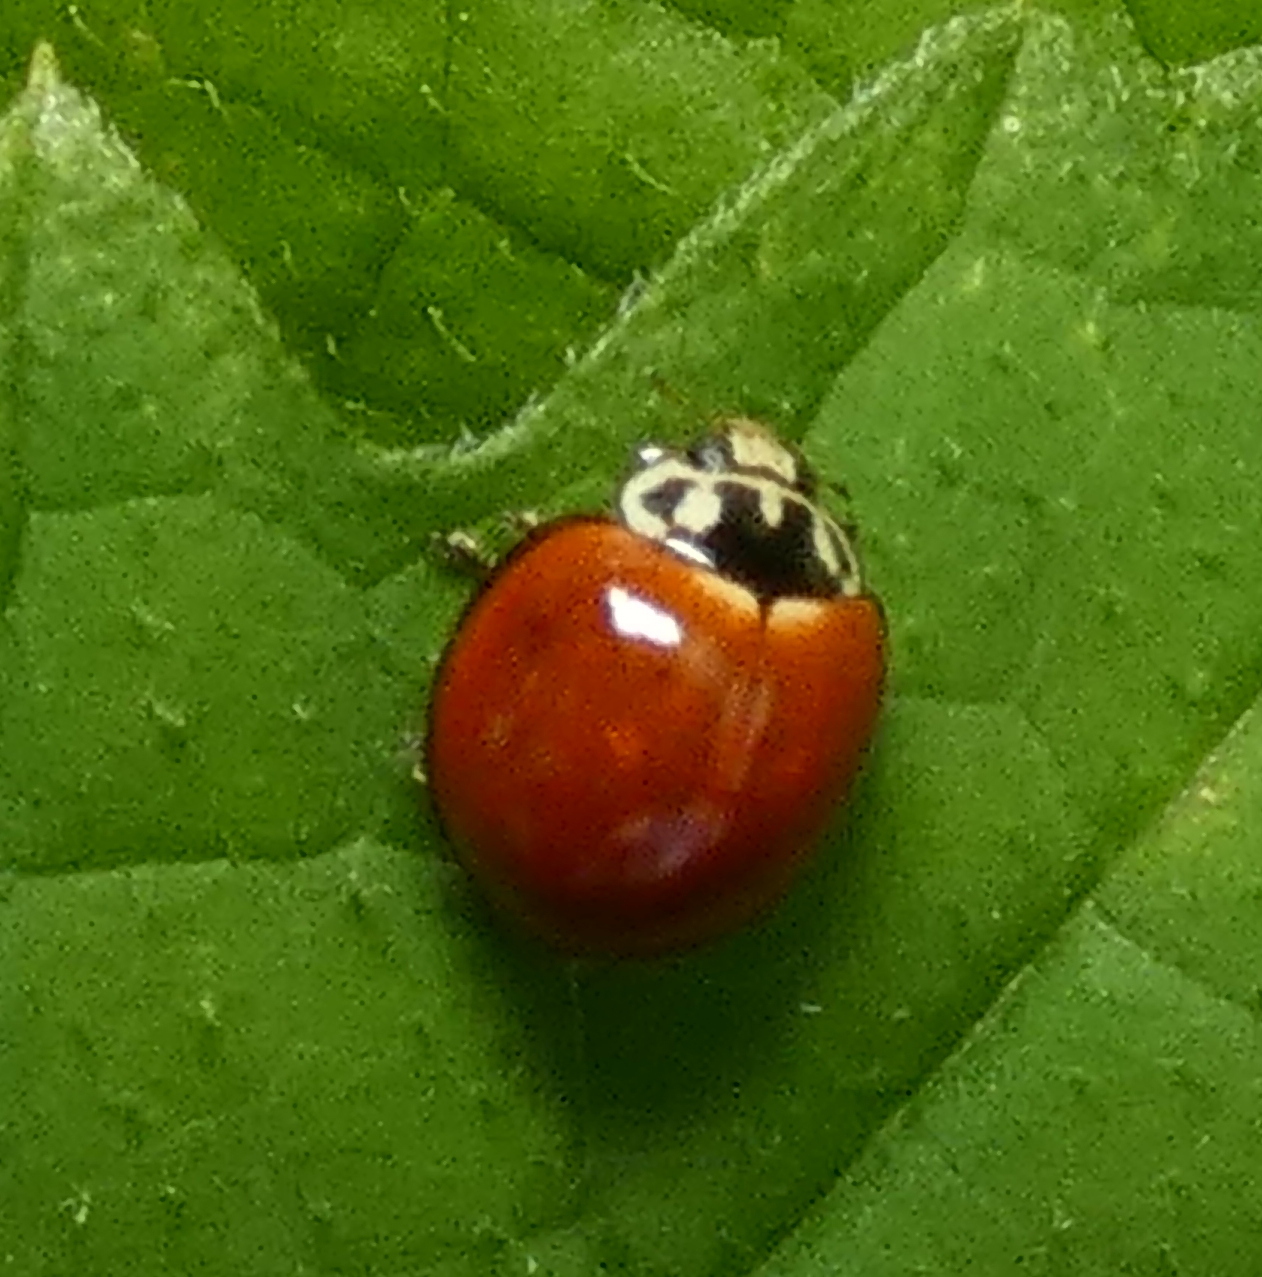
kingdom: Animalia
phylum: Arthropoda
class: Insecta
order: Coleoptera
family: Coccinellidae
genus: Cycloneda
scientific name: Cycloneda sanguinea
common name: Ladybird beetle
